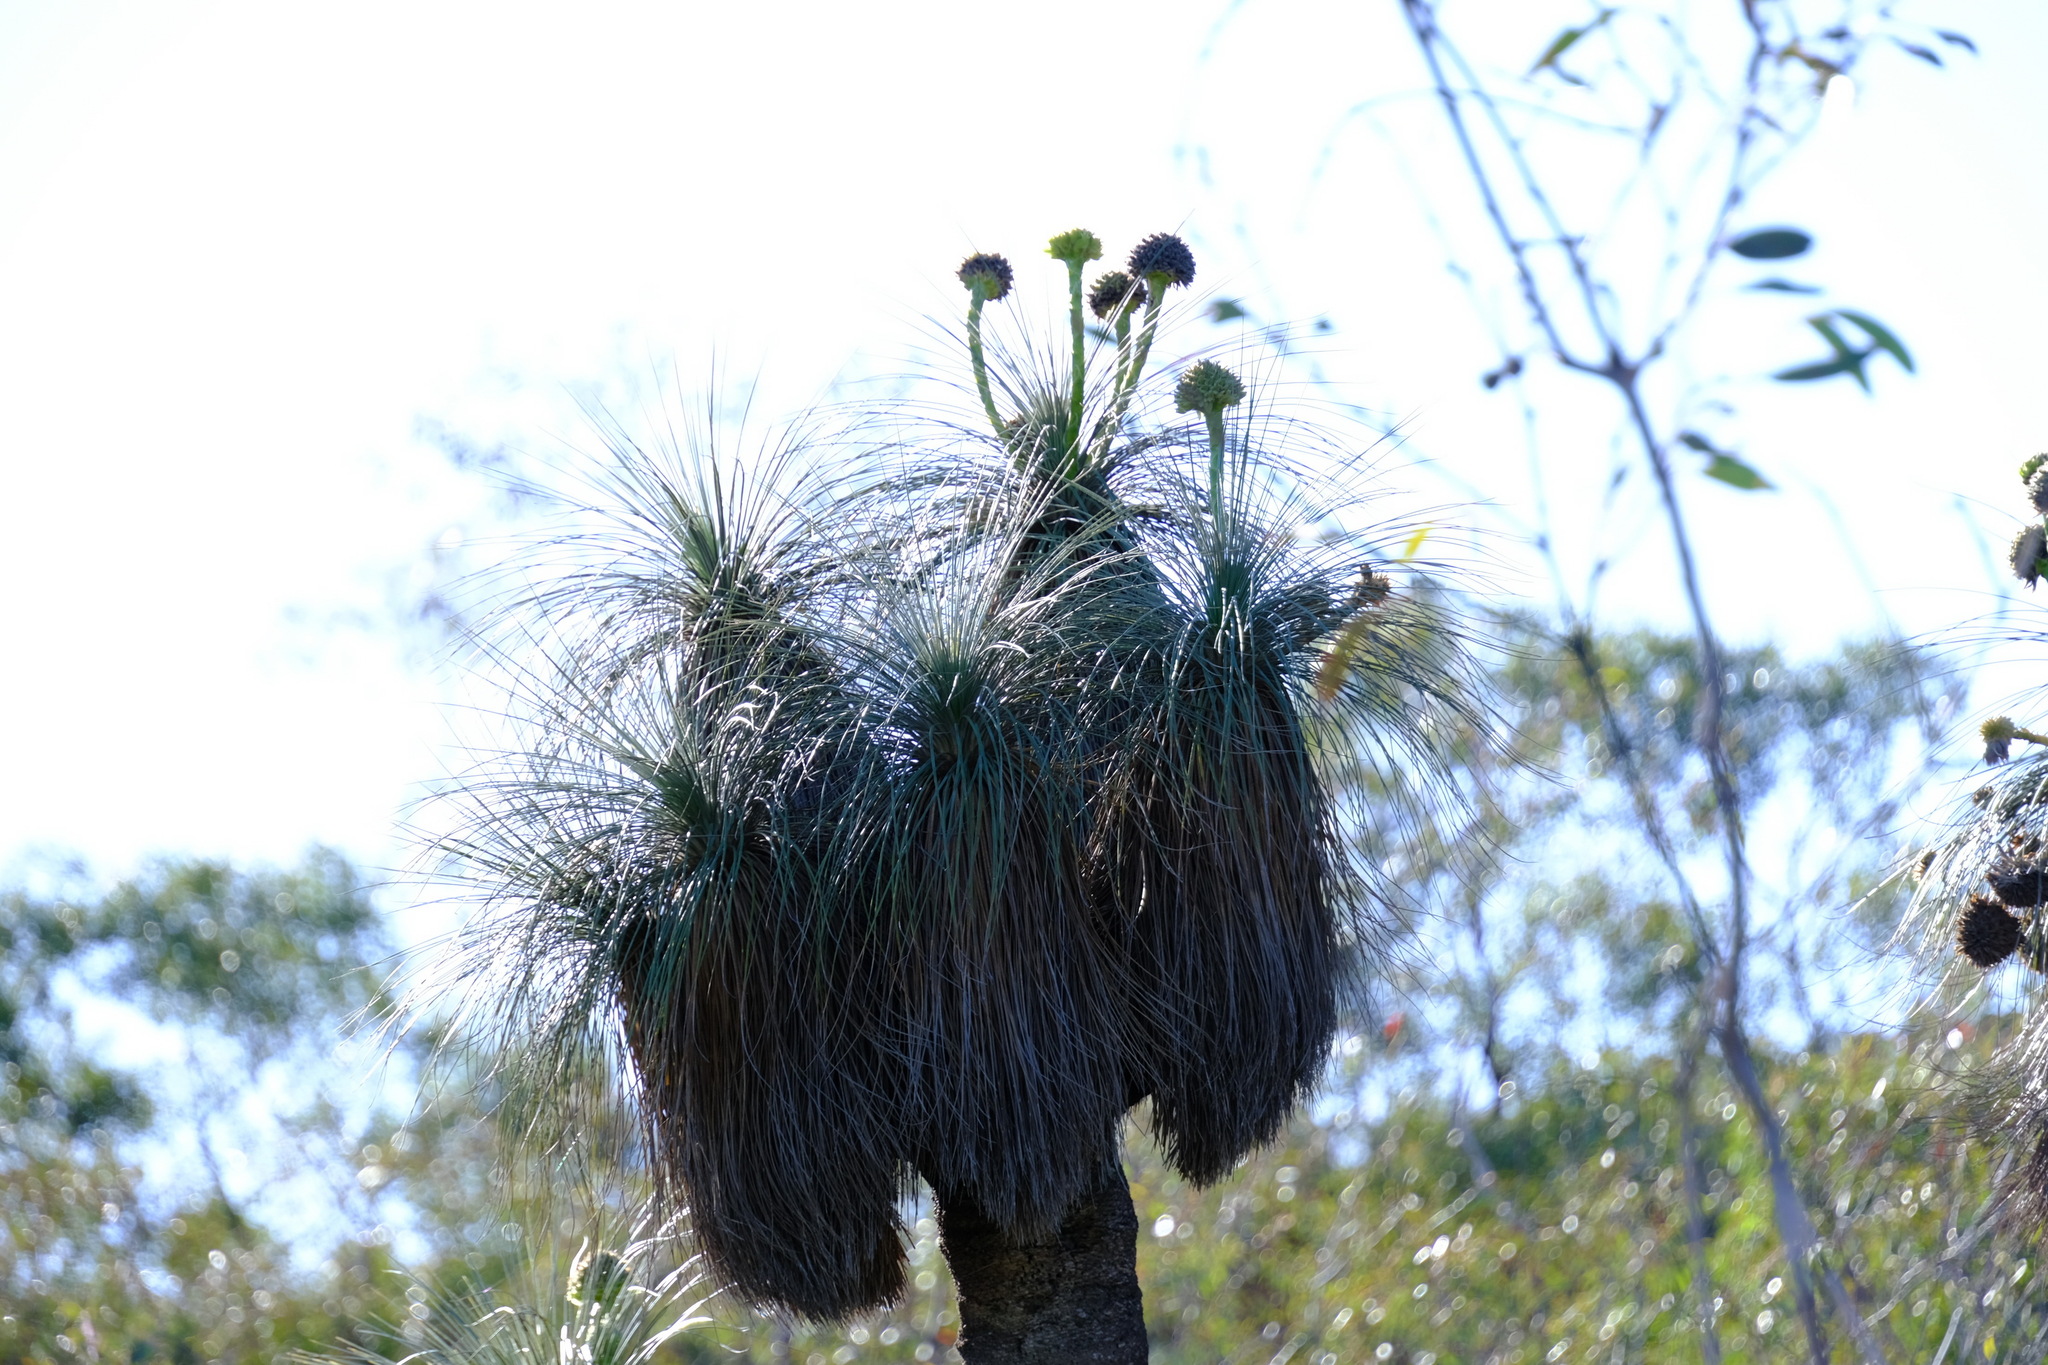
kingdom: Plantae
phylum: Tracheophyta
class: Liliopsida
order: Arecales
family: Dasypogonaceae
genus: Kingia
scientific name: Kingia australis
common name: Black gin
